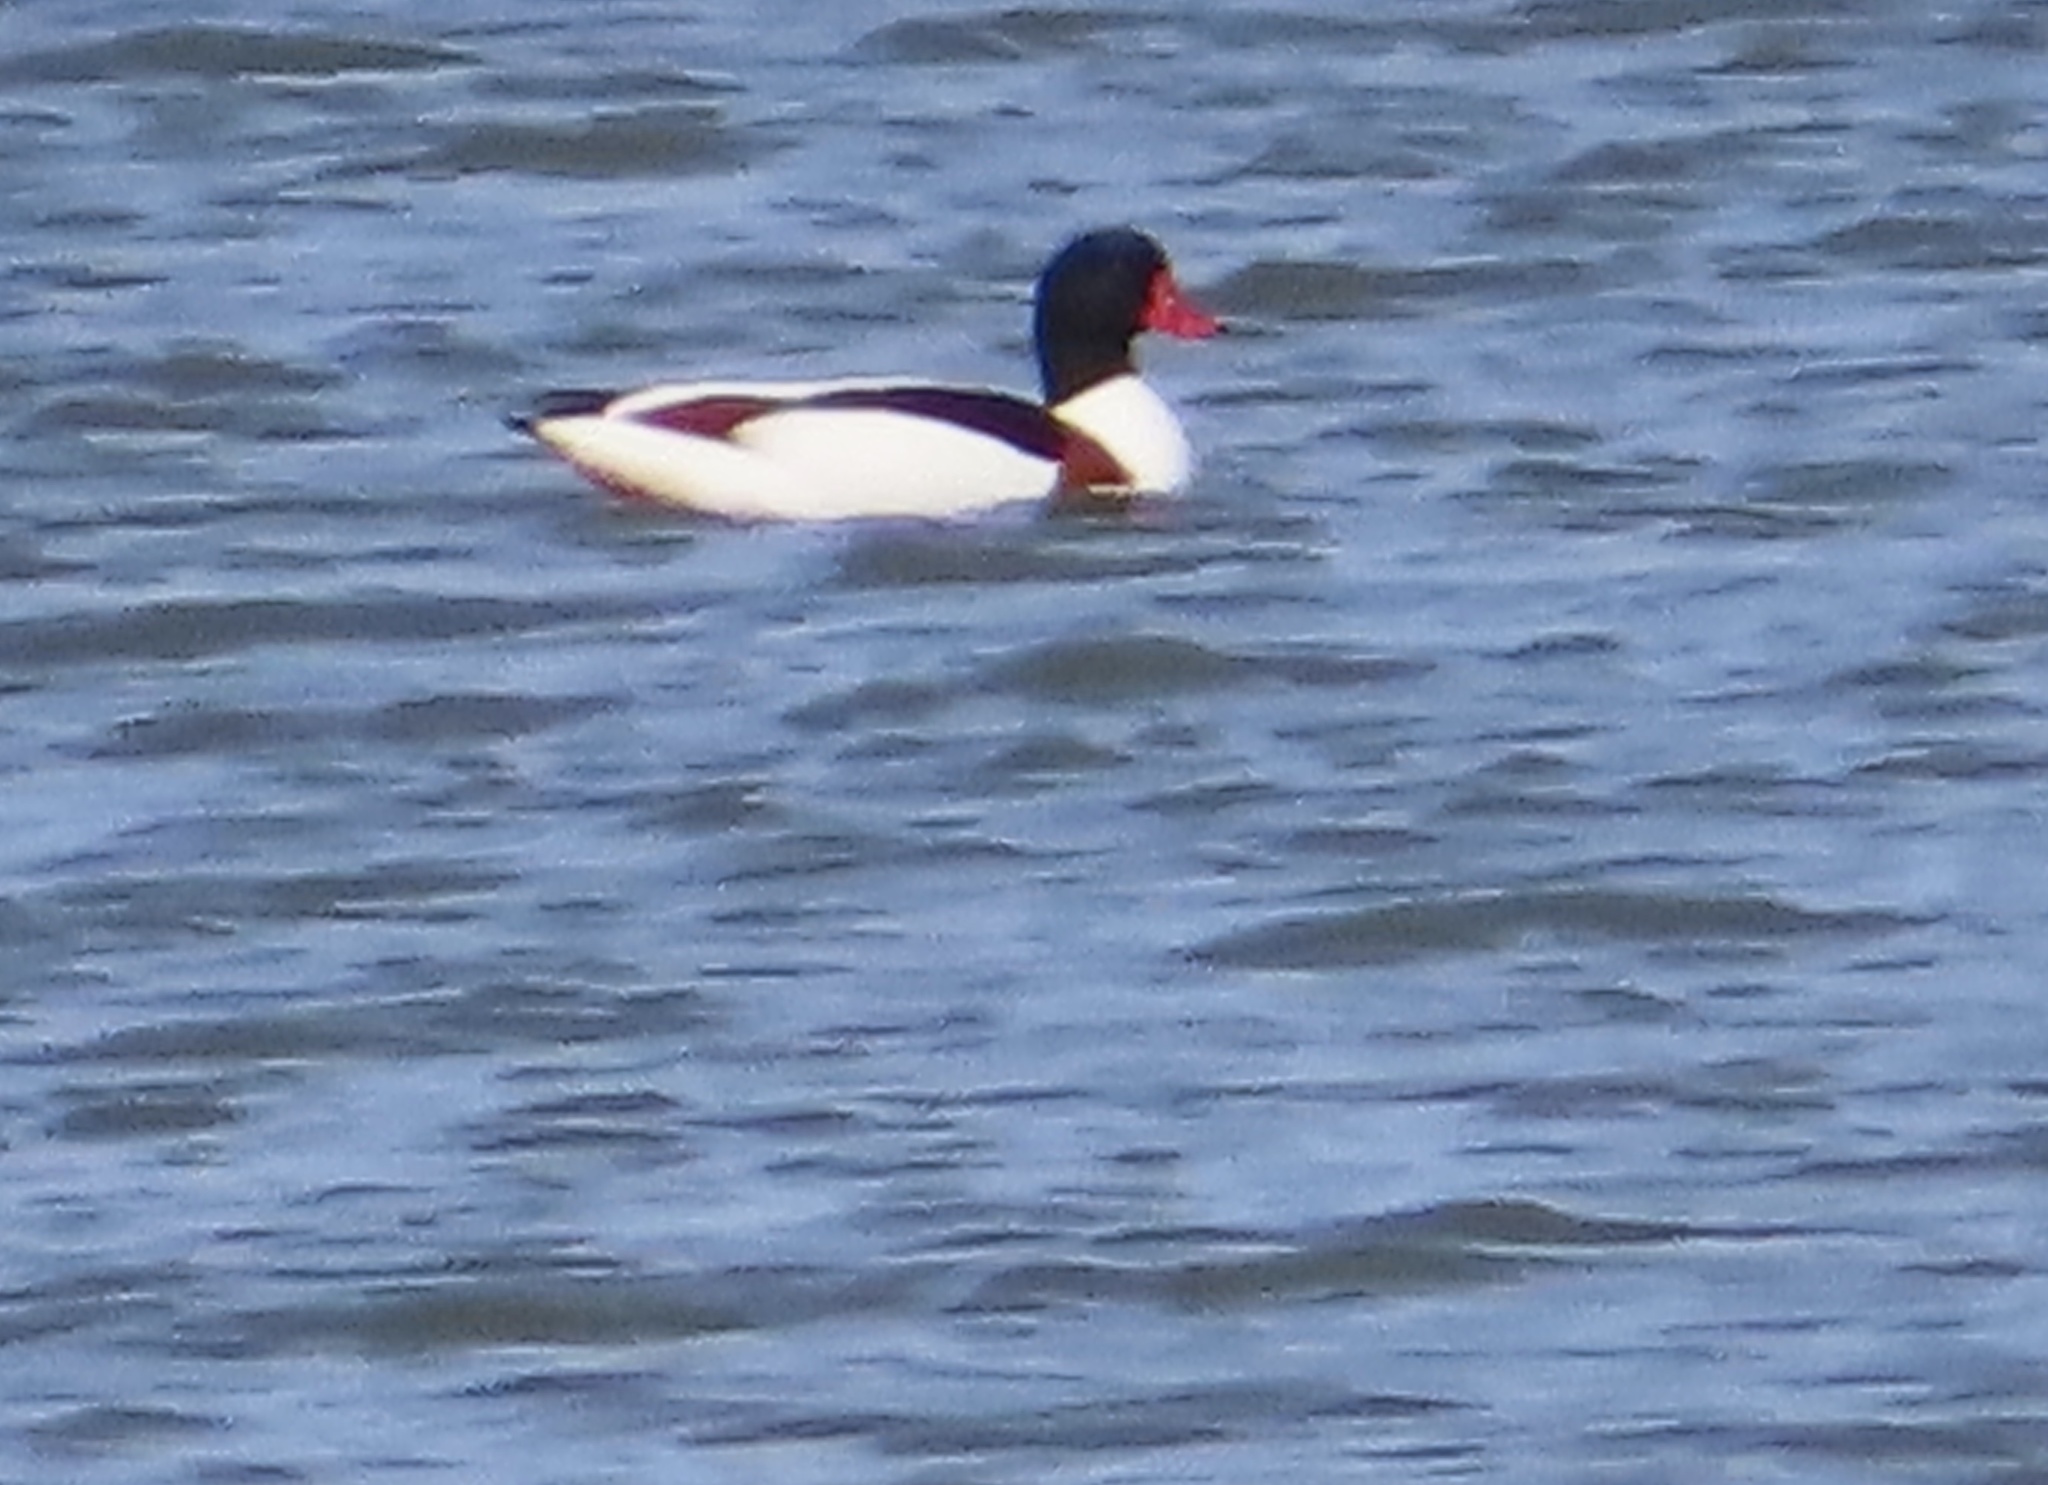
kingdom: Animalia
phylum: Chordata
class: Aves
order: Anseriformes
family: Anatidae
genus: Tadorna
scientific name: Tadorna tadorna
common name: Common shelduck
